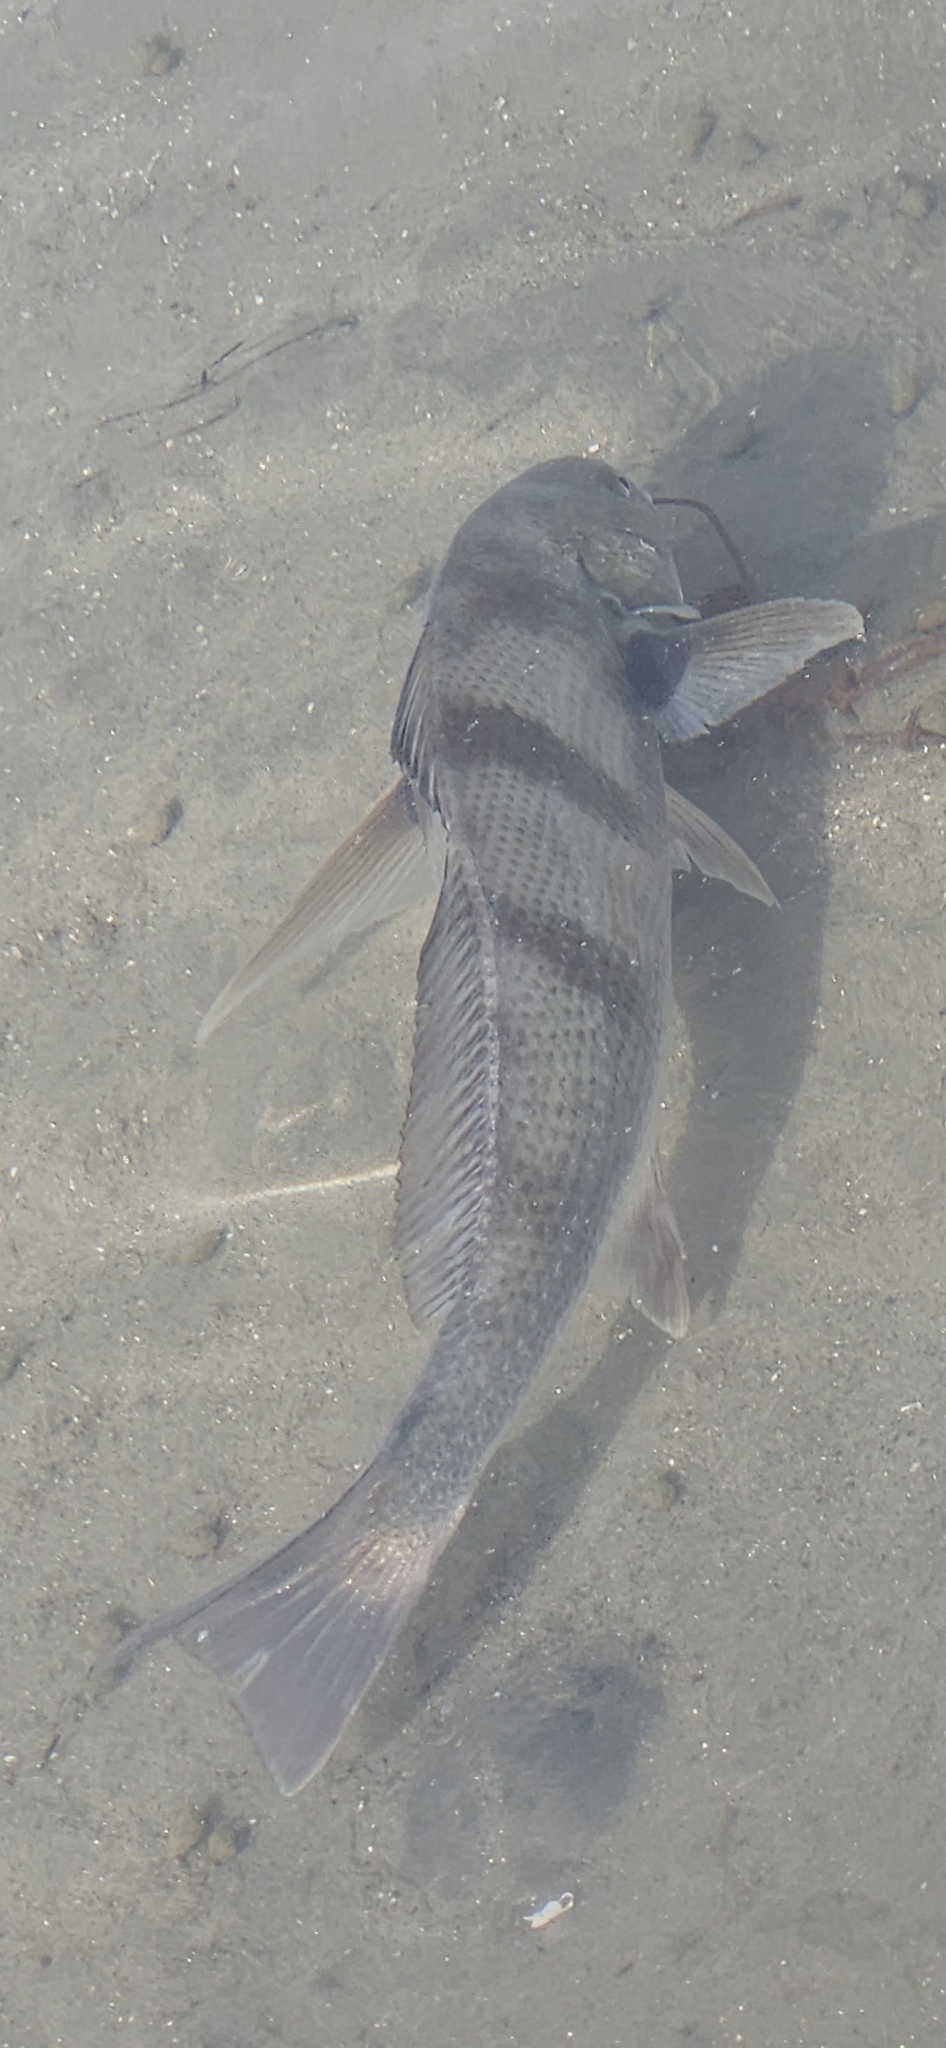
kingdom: Animalia
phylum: Chordata
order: Perciformes
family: Sciaenidae
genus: Roncador
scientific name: Roncador stearnsii
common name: Croaker
